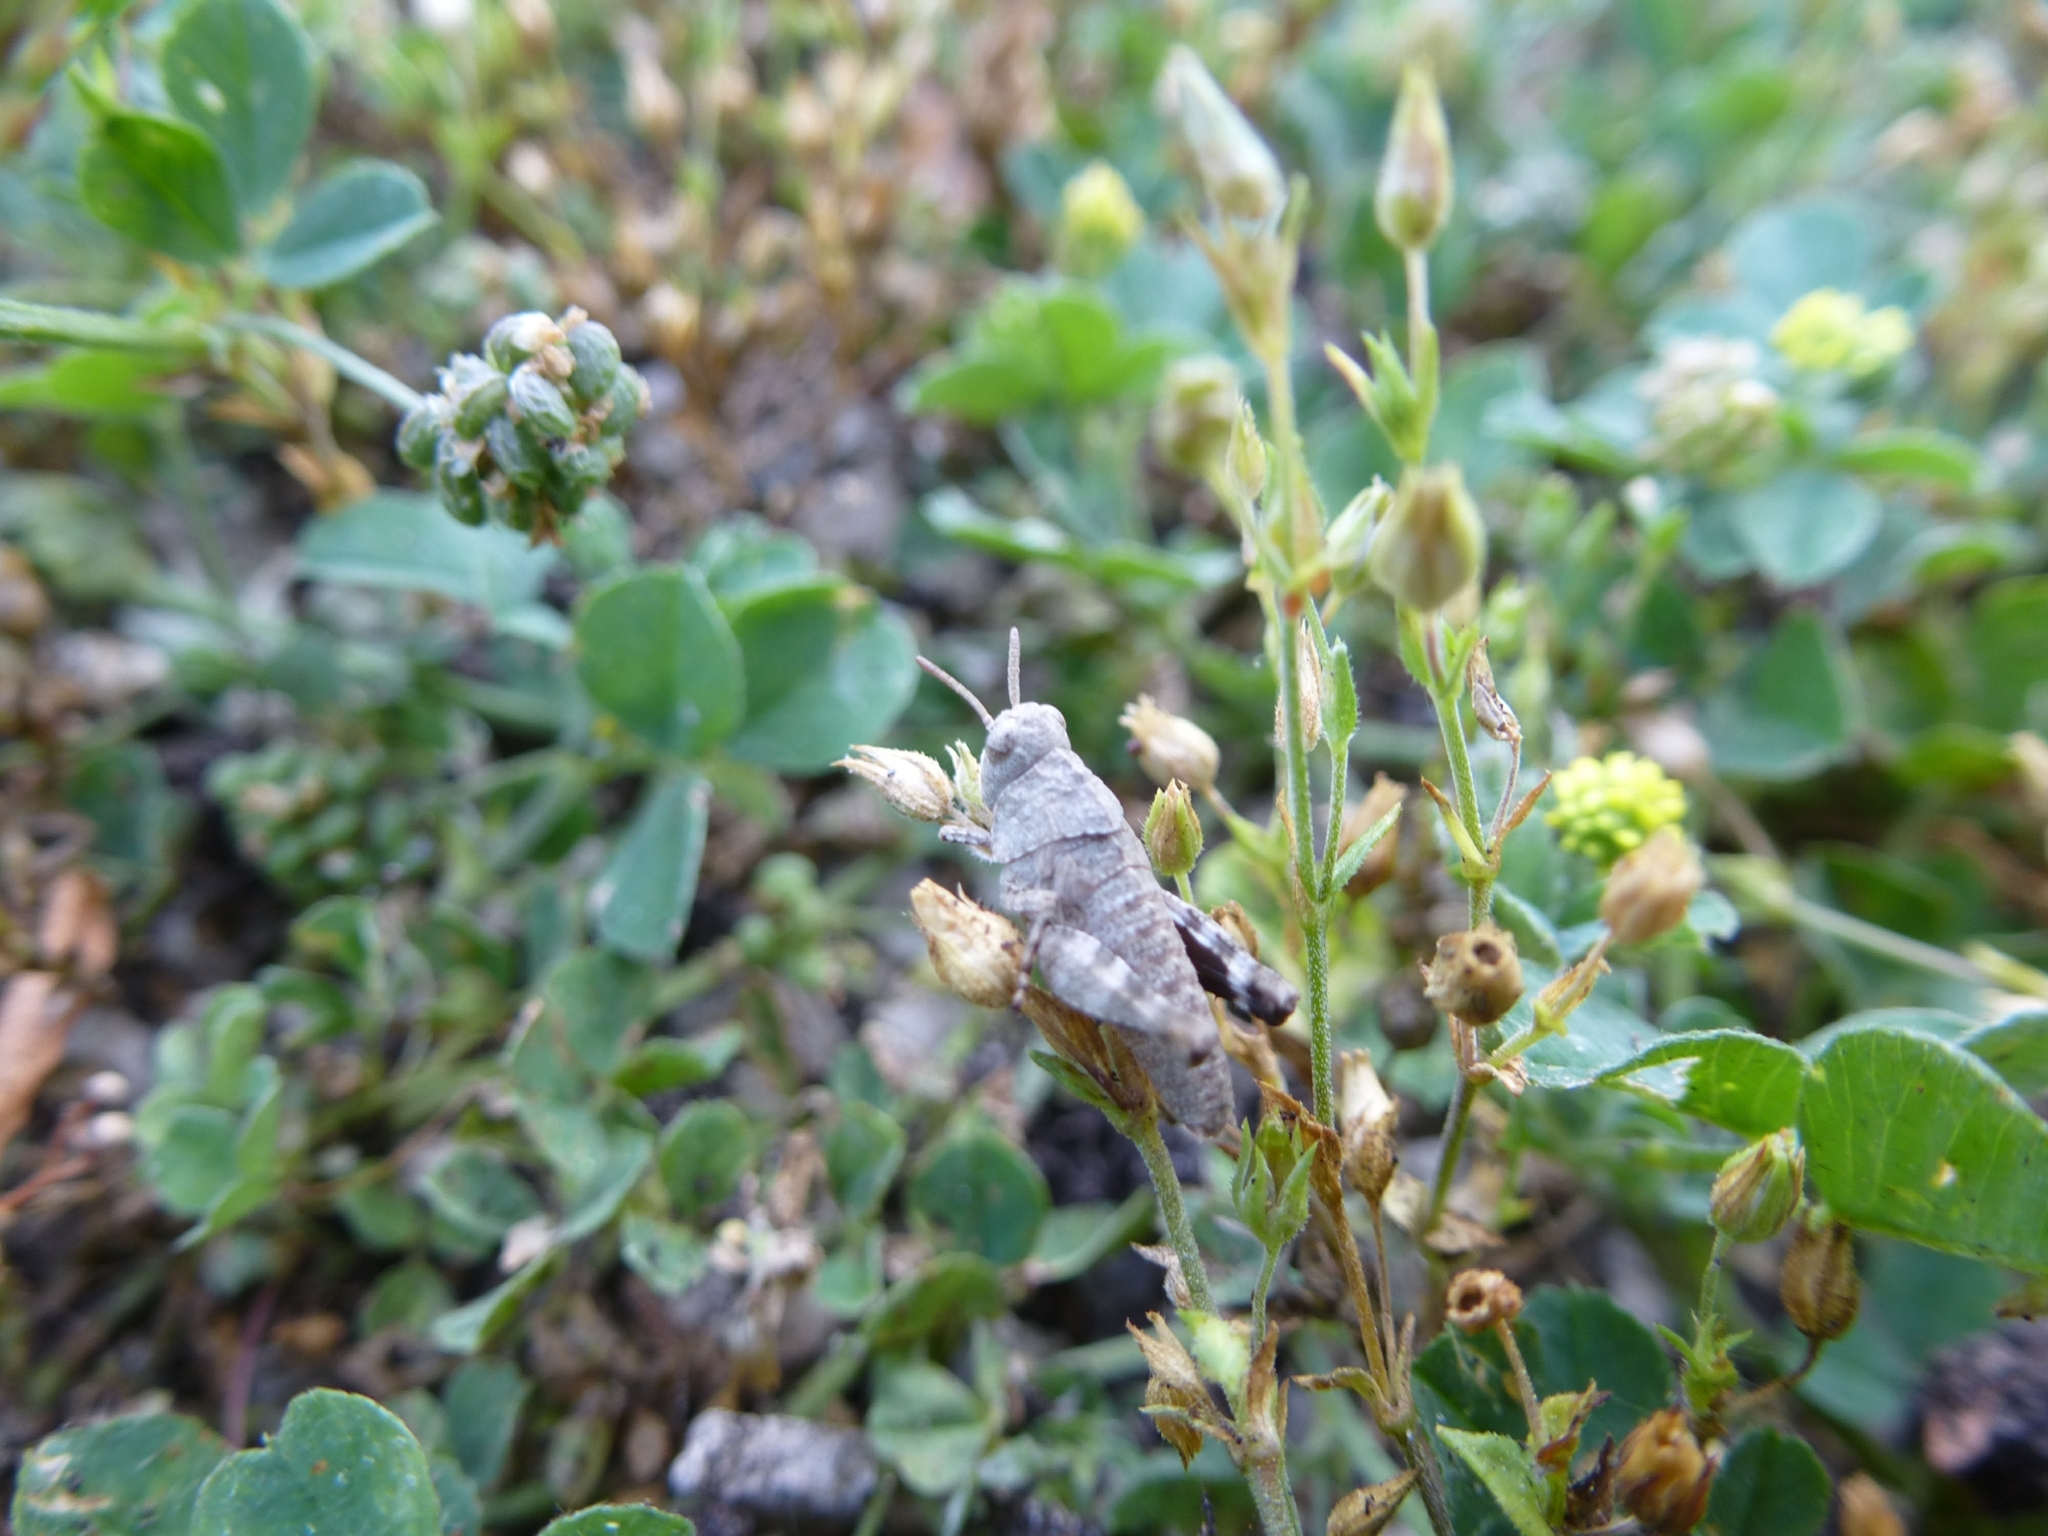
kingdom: Animalia
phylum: Arthropoda
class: Insecta
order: Orthoptera
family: Acrididae
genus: Oedipoda
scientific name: Oedipoda caerulescens
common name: Blue-winged grasshopper
